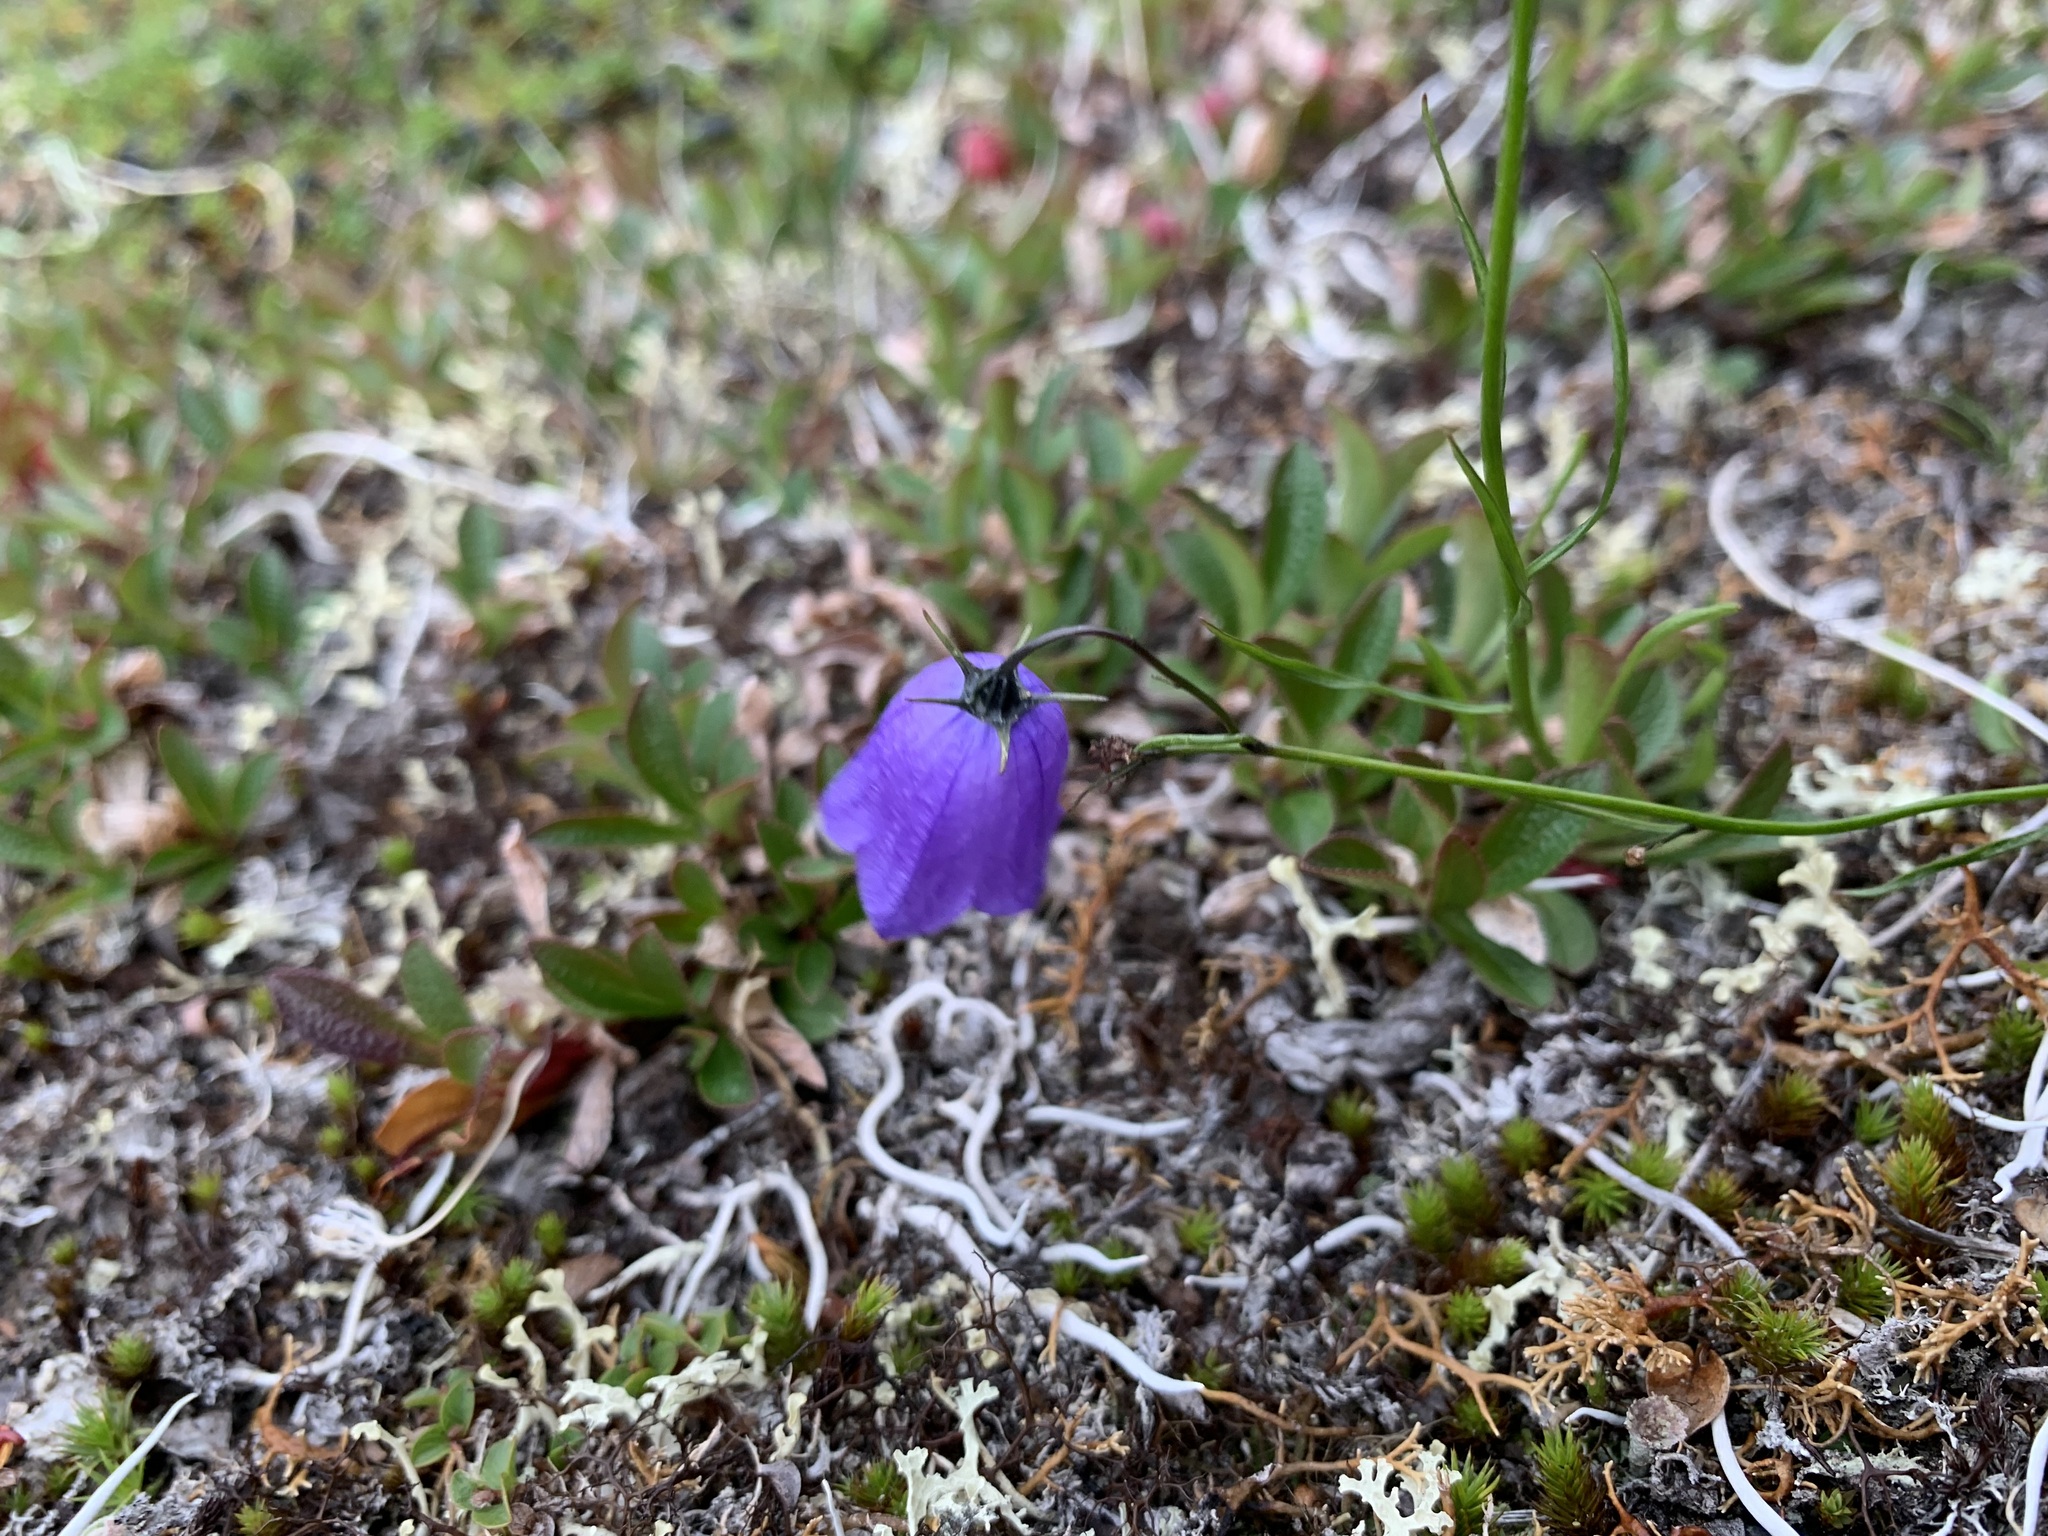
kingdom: Plantae
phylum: Tracheophyta
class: Magnoliopsida
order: Asterales
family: Campanulaceae
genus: Campanula
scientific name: Campanula rotundifolia
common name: Harebell
